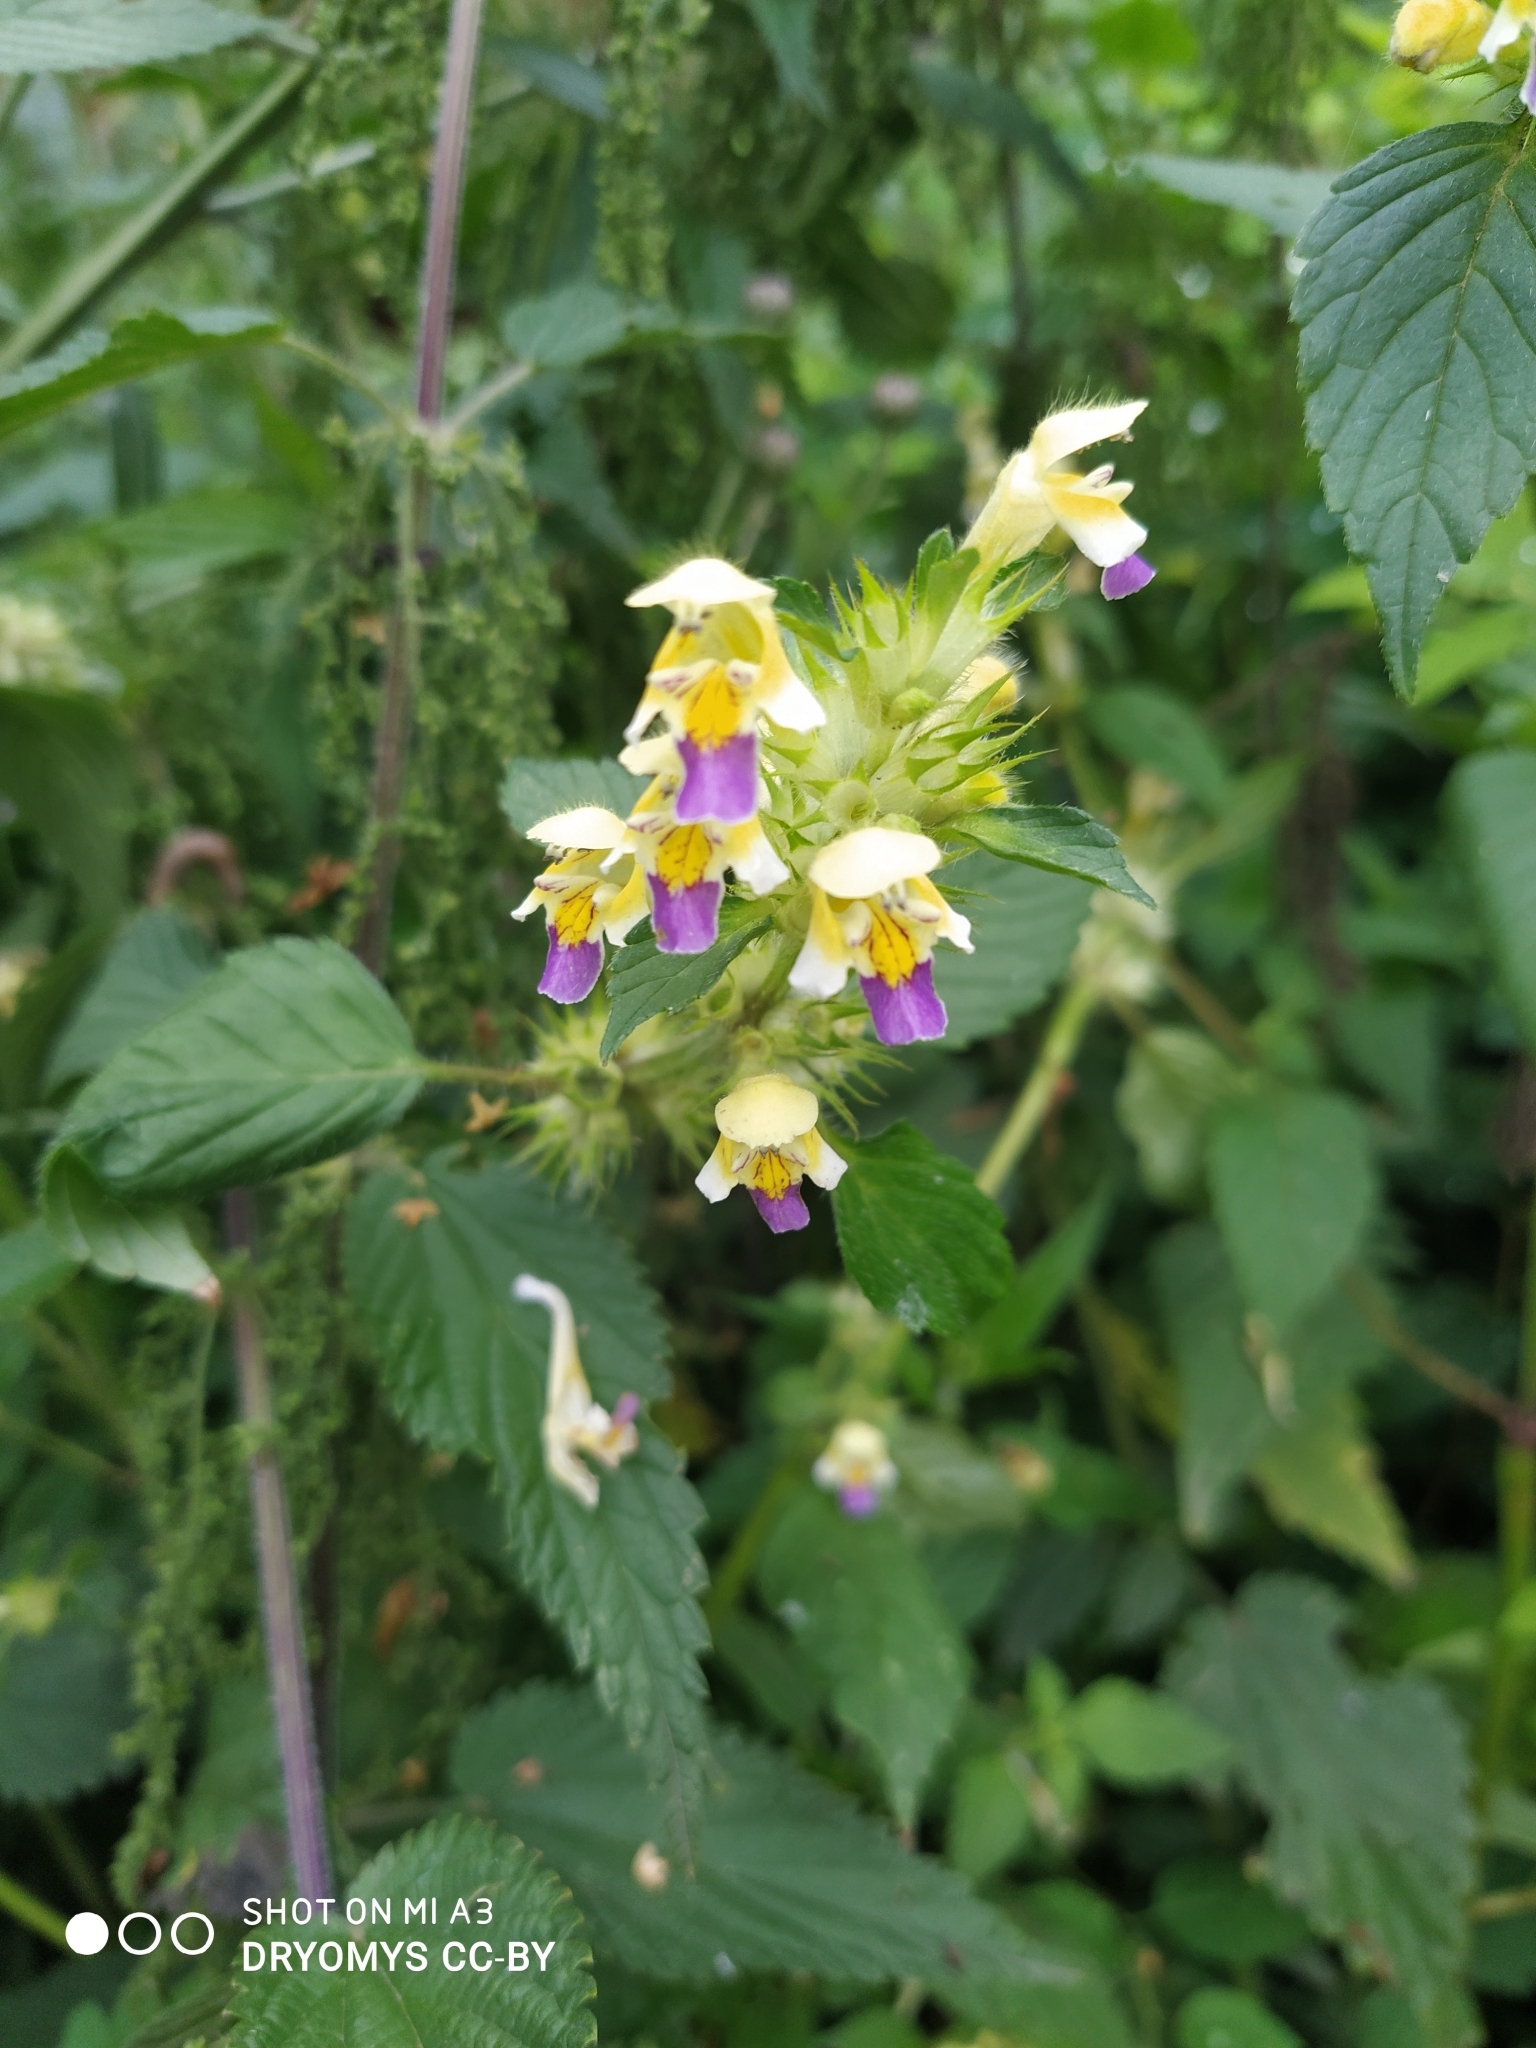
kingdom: Plantae
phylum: Tracheophyta
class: Magnoliopsida
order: Lamiales
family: Lamiaceae
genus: Galeopsis
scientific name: Galeopsis speciosa
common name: Large-flowered hemp-nettle
